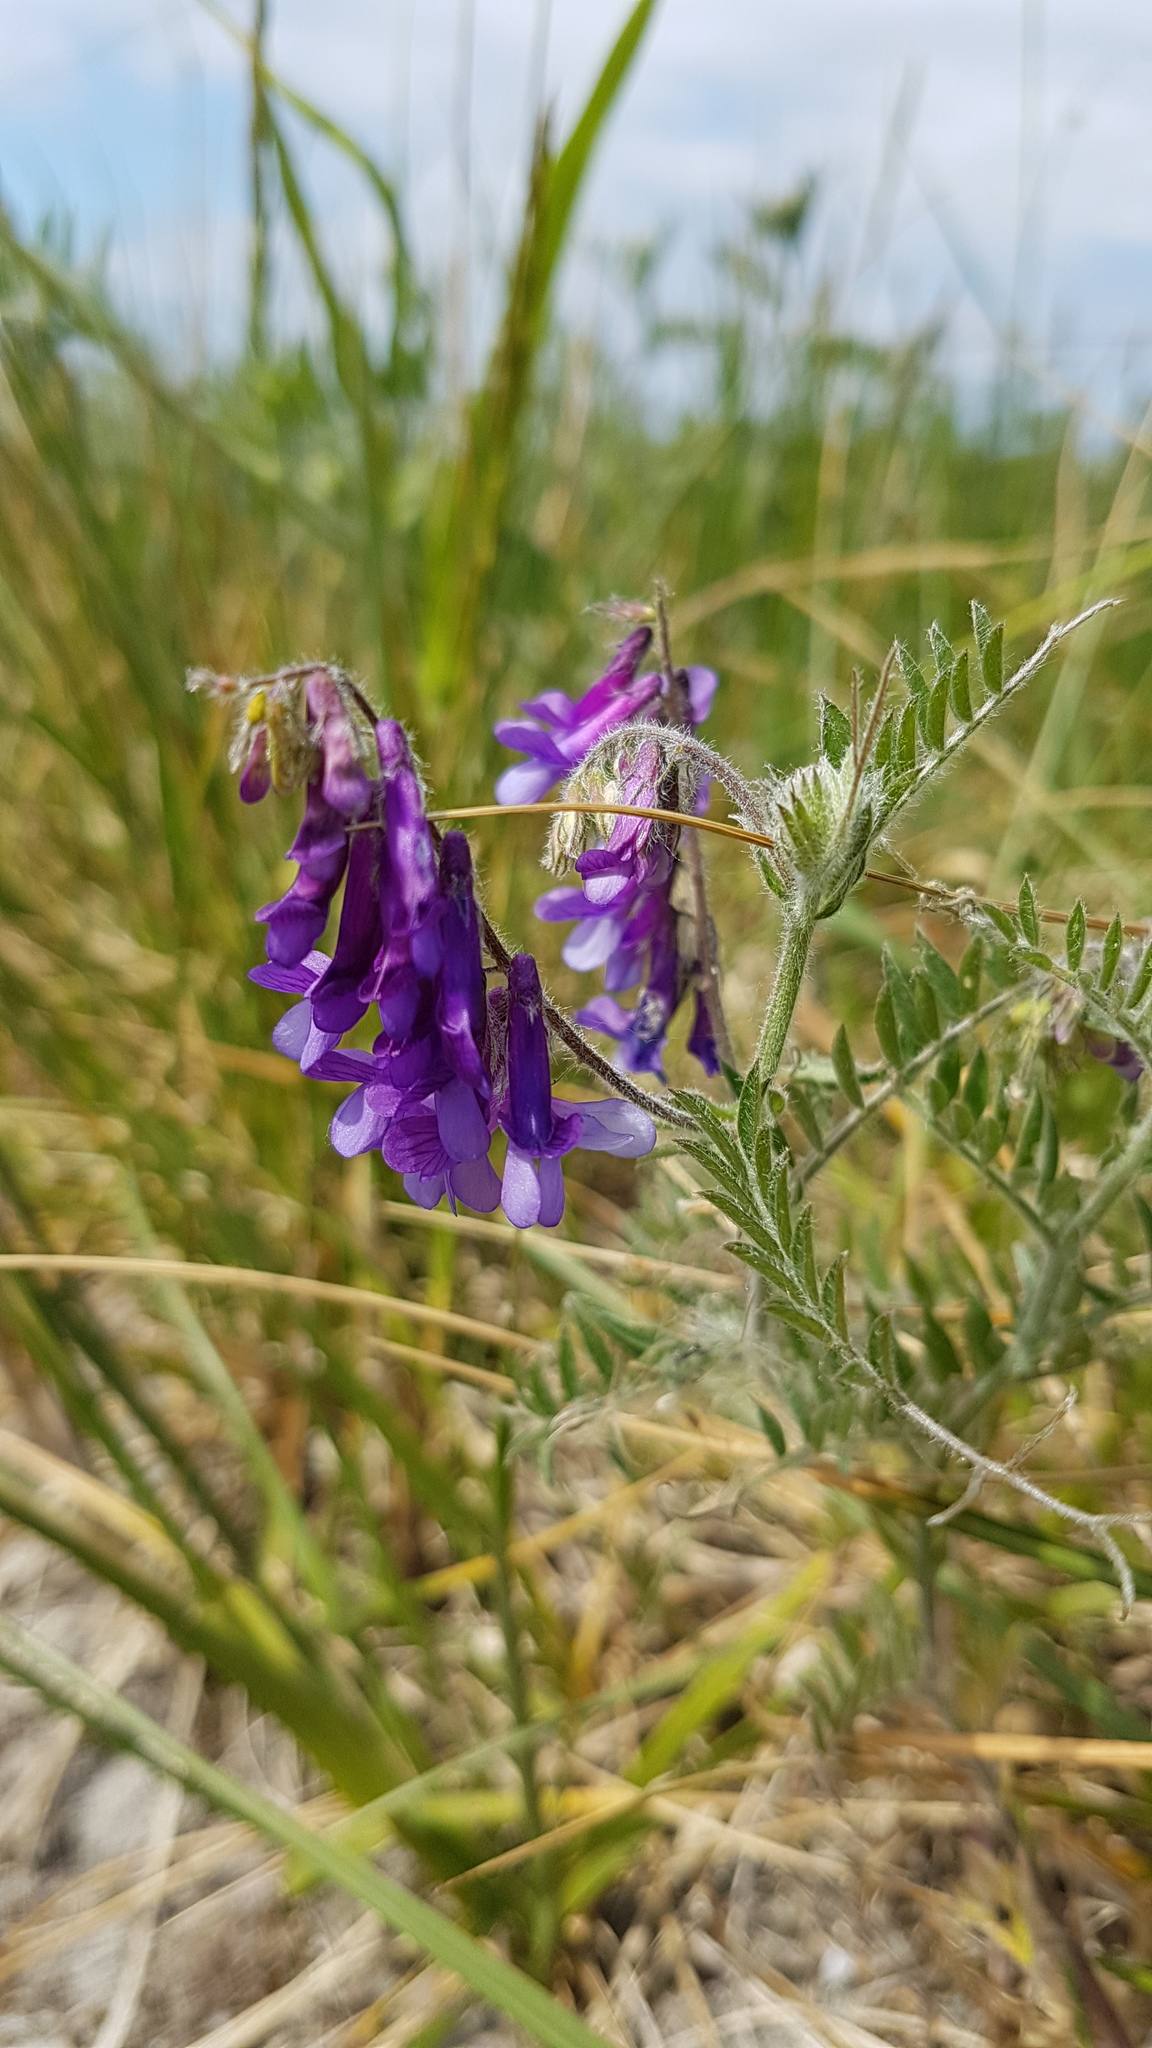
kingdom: Plantae
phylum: Tracheophyta
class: Magnoliopsida
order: Fabales
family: Fabaceae
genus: Vicia
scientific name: Vicia villosa
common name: Fodder vetch
